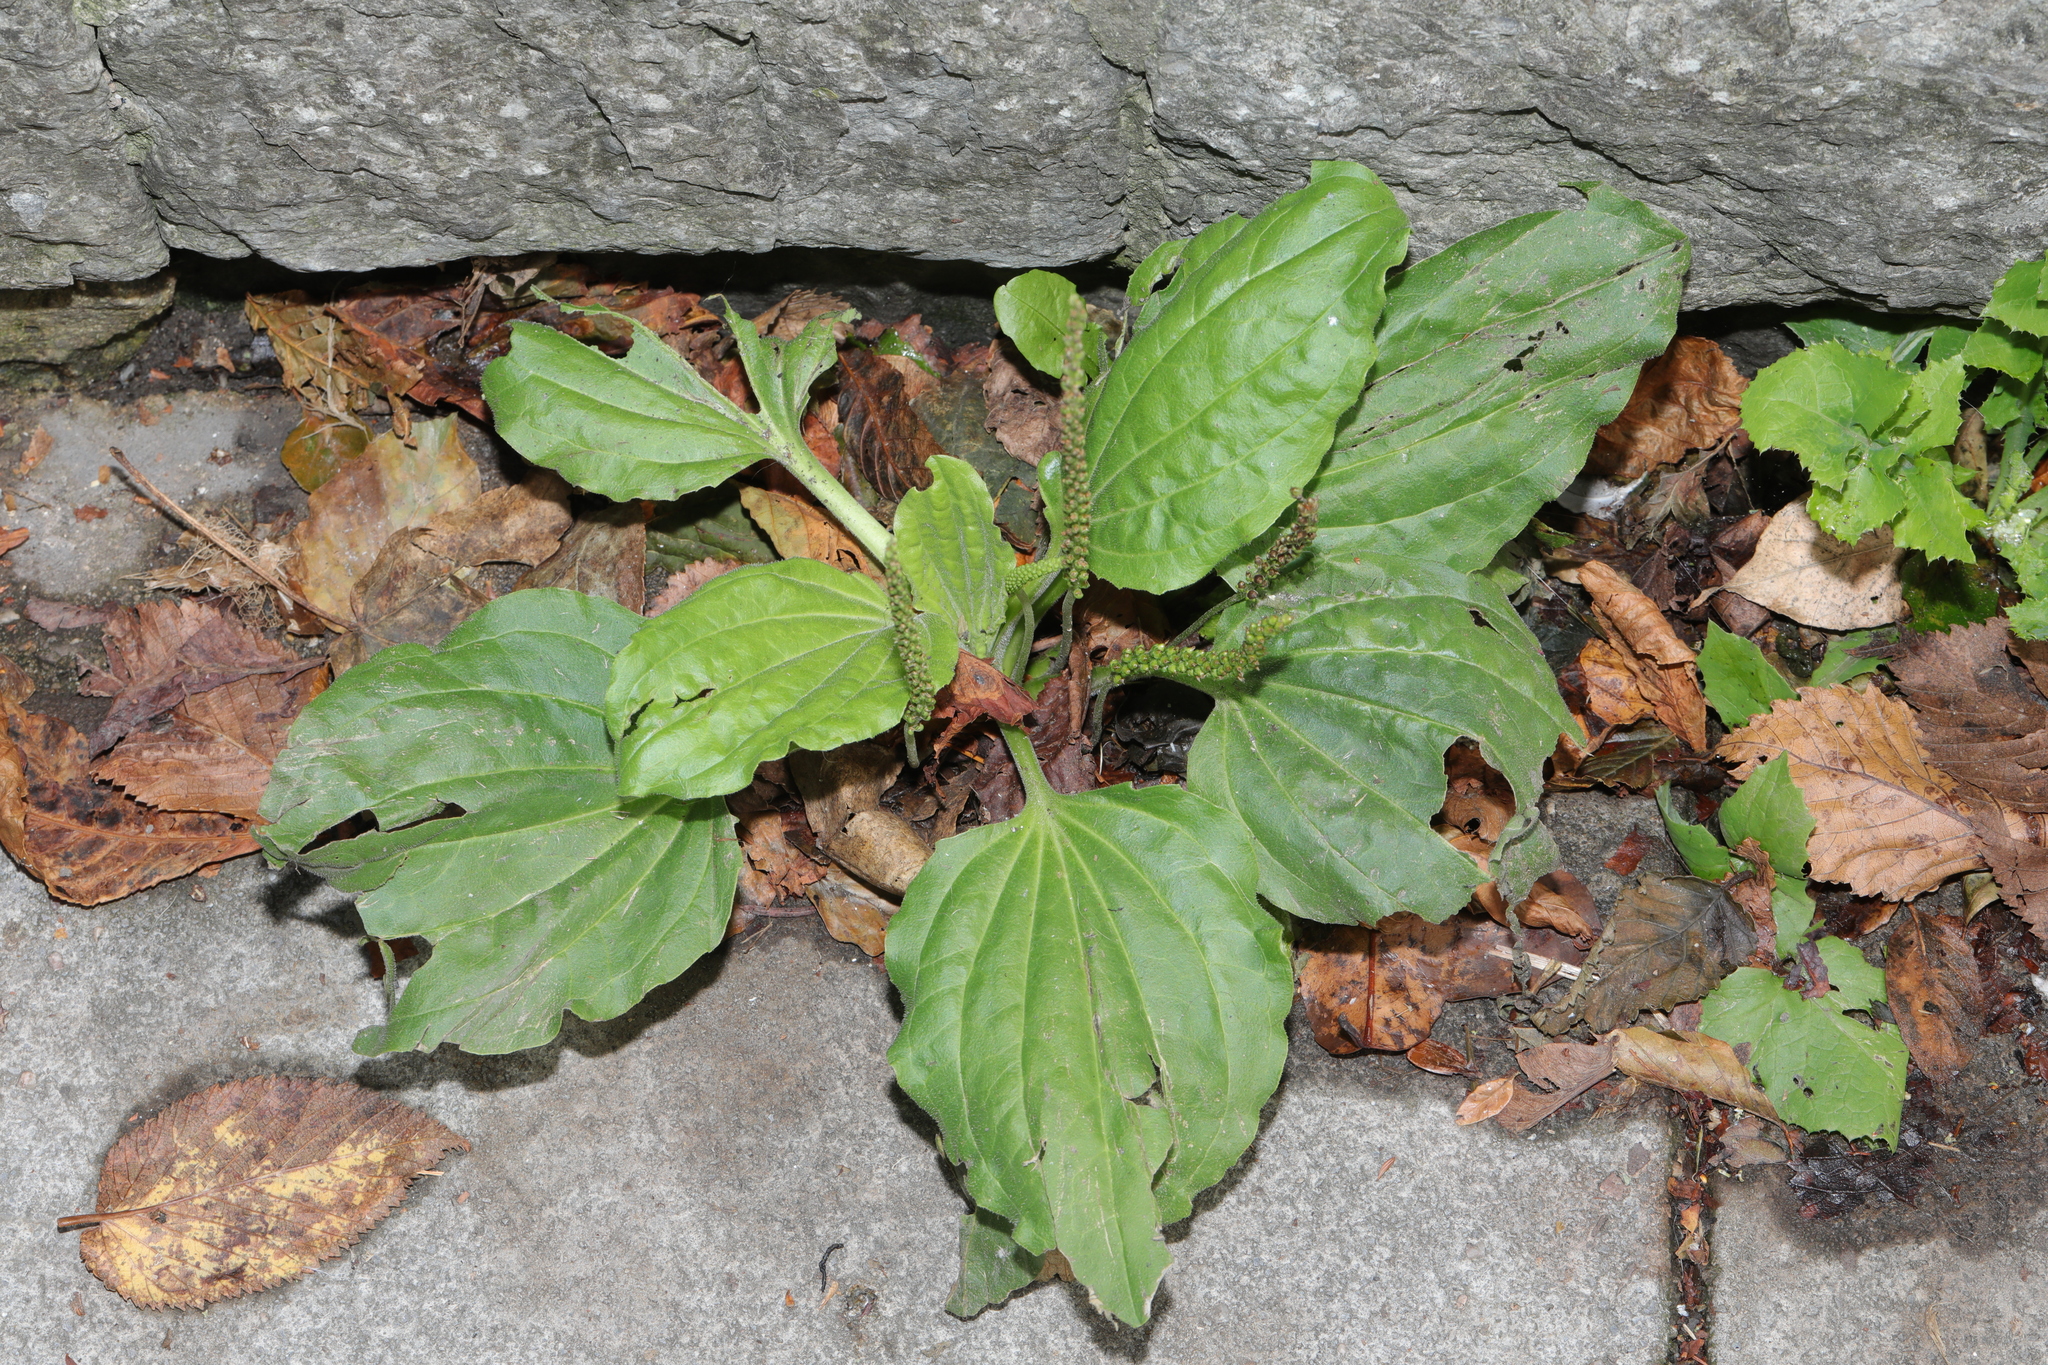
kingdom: Plantae
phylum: Tracheophyta
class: Magnoliopsida
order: Lamiales
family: Plantaginaceae
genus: Plantago
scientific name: Plantago major
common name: Common plantain
